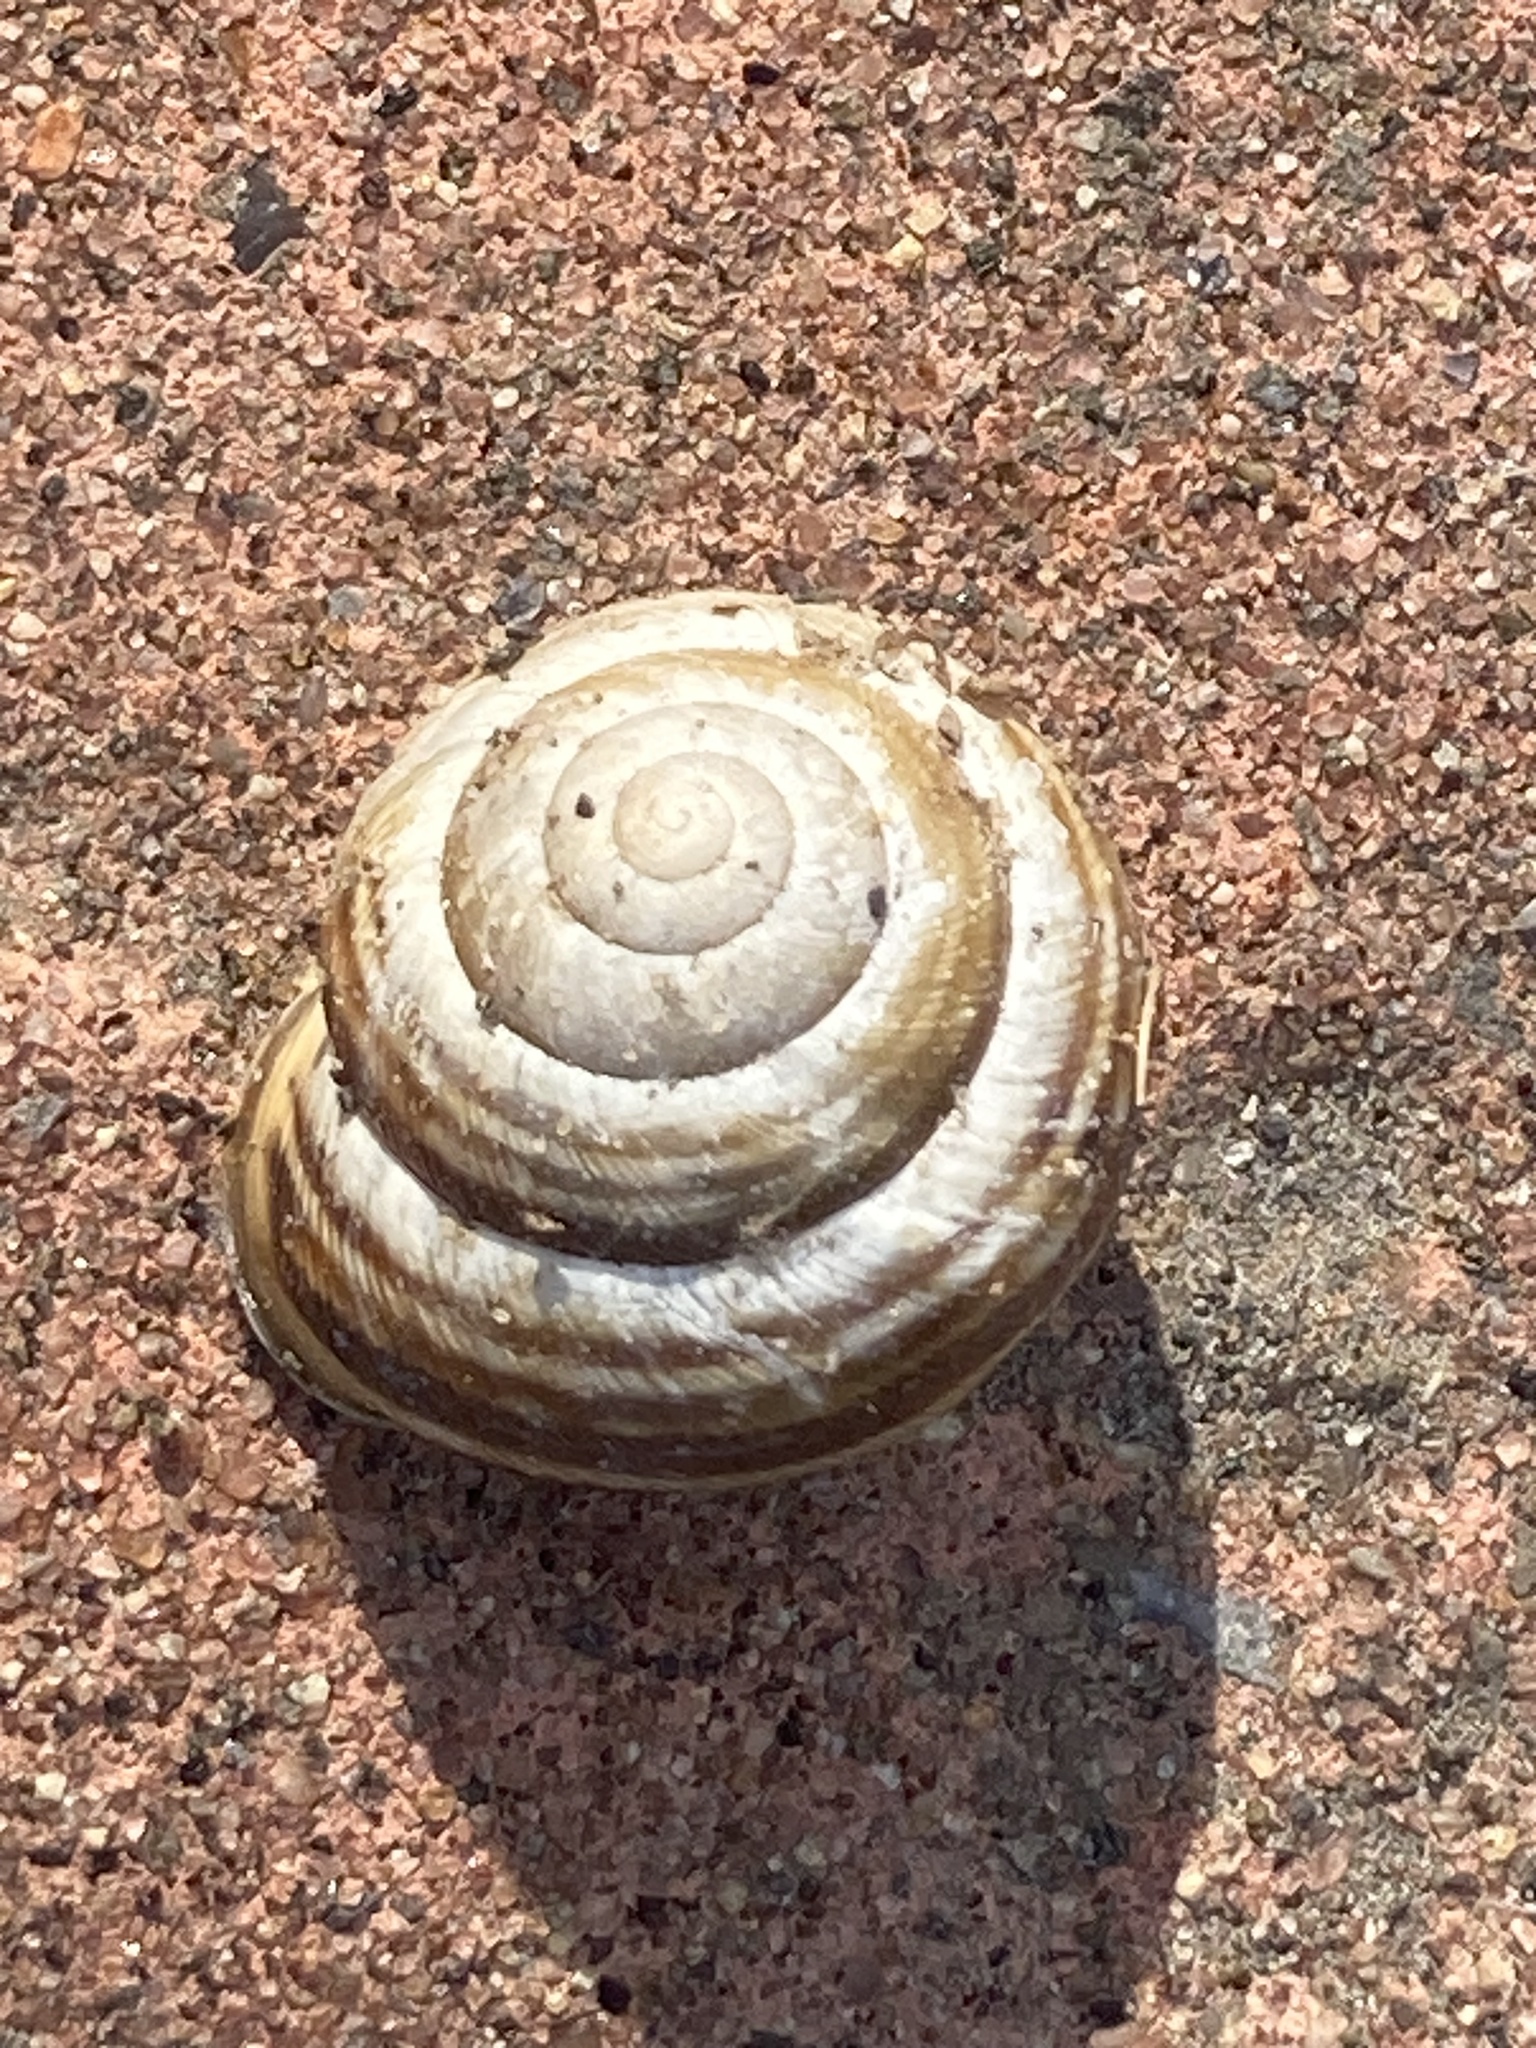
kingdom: Animalia
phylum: Mollusca
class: Gastropoda
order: Stylommatophora
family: Helicidae
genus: Caucasotachea
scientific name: Caucasotachea vindobonensis
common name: European helicid land snail
